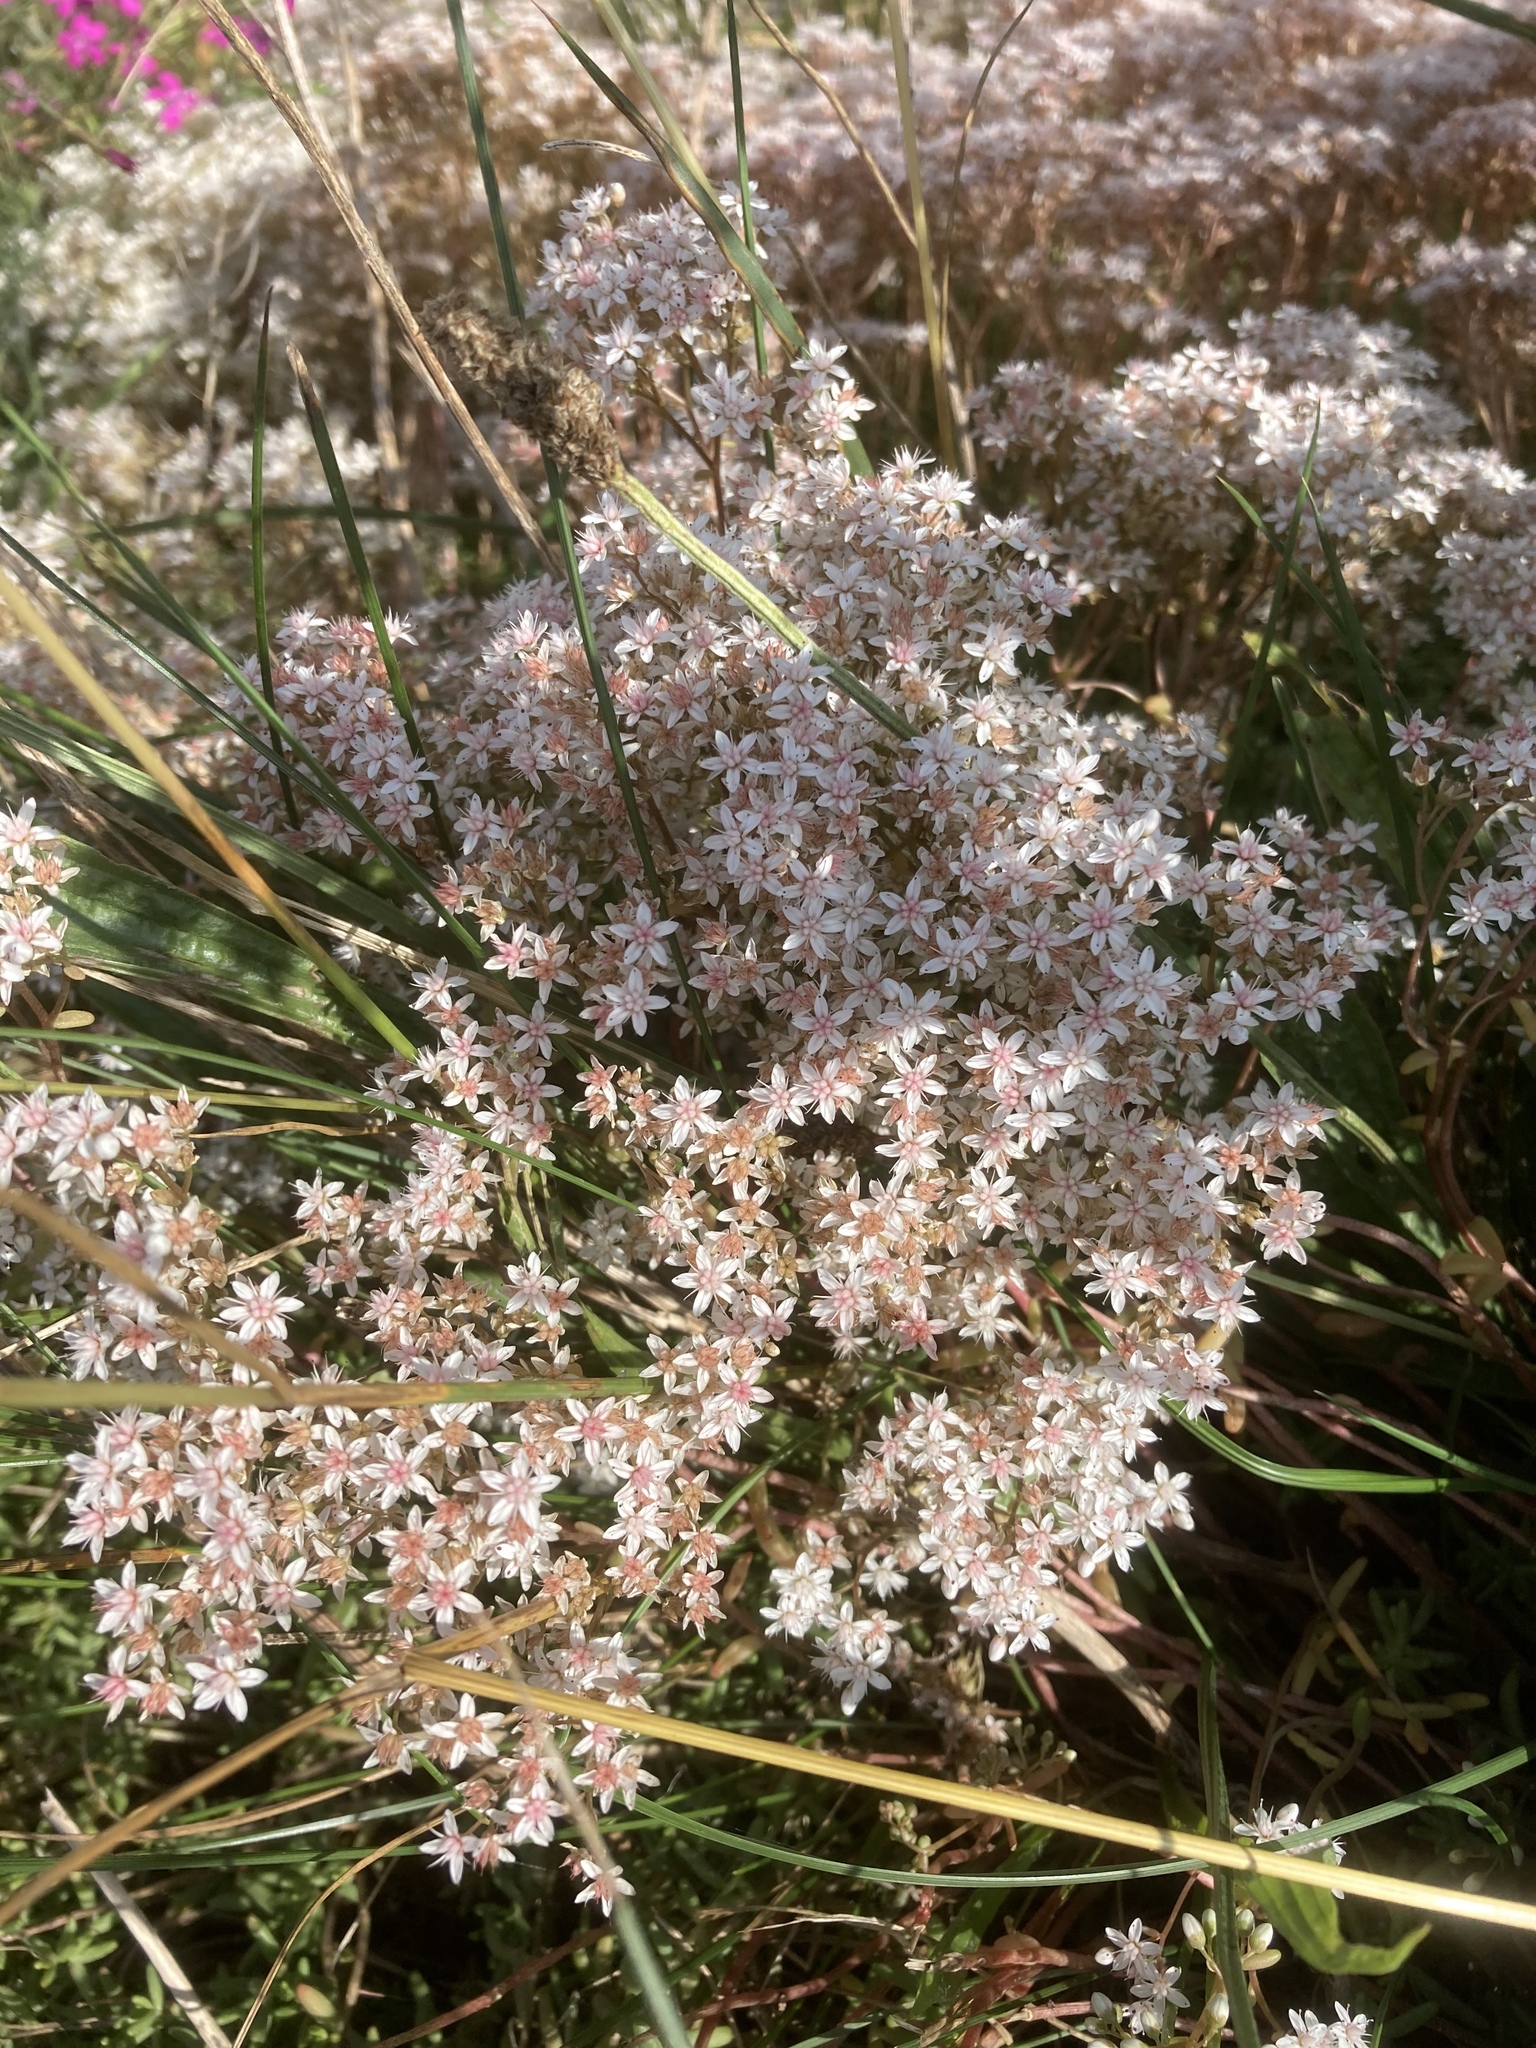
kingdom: Plantae
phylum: Tracheophyta
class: Magnoliopsida
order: Saxifragales
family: Crassulaceae
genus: Sedum
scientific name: Sedum album
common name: White stonecrop
